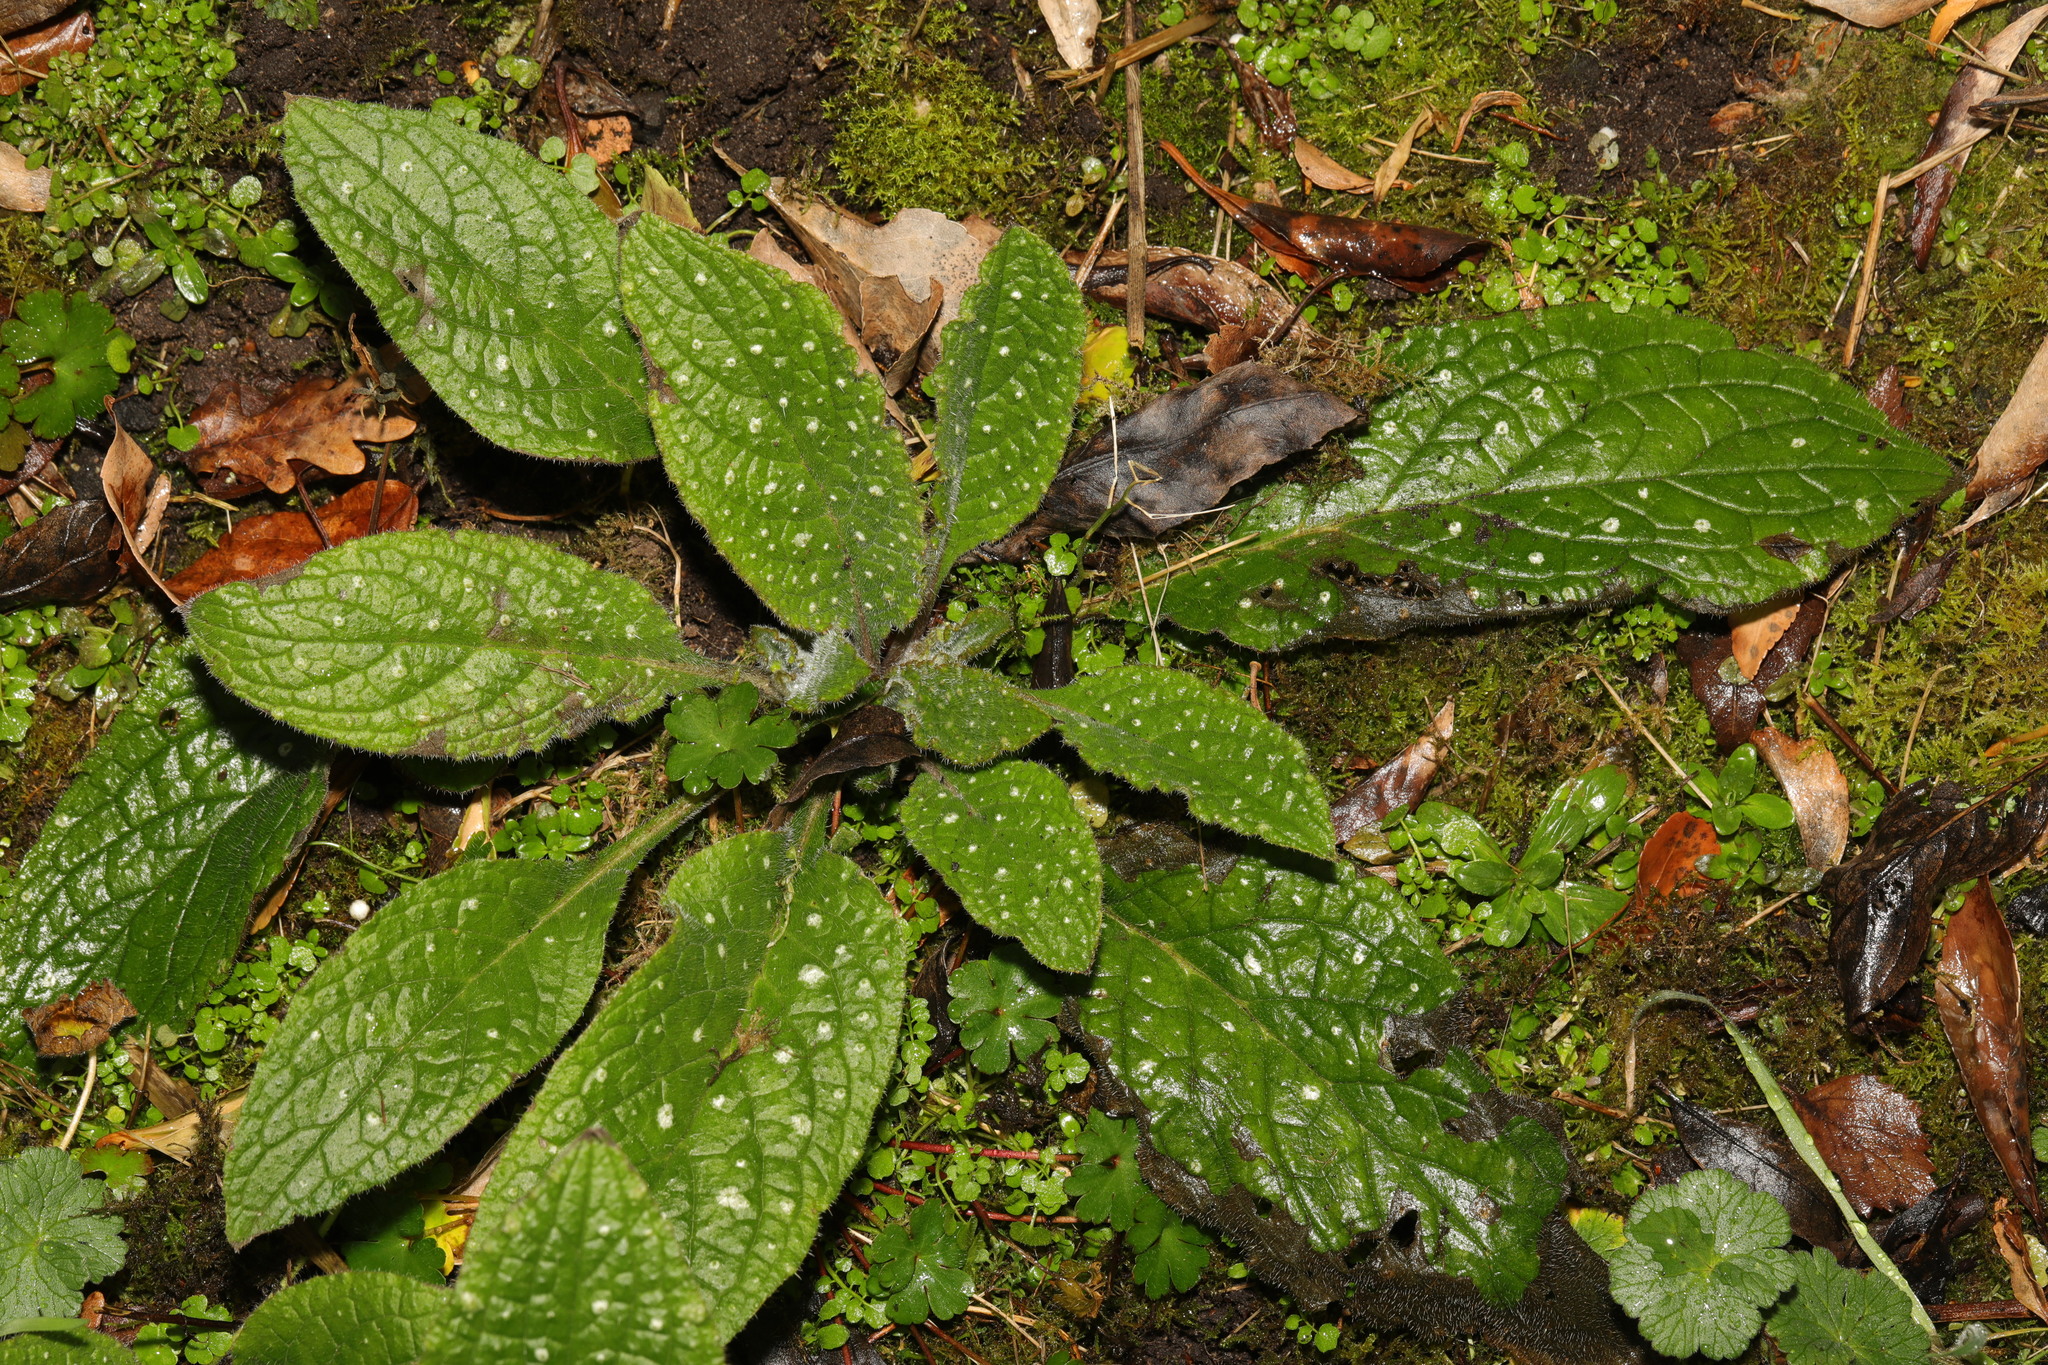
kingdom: Plantae
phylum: Tracheophyta
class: Magnoliopsida
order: Boraginales
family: Boraginaceae
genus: Pentaglottis
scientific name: Pentaglottis sempervirens
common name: Green alkanet
